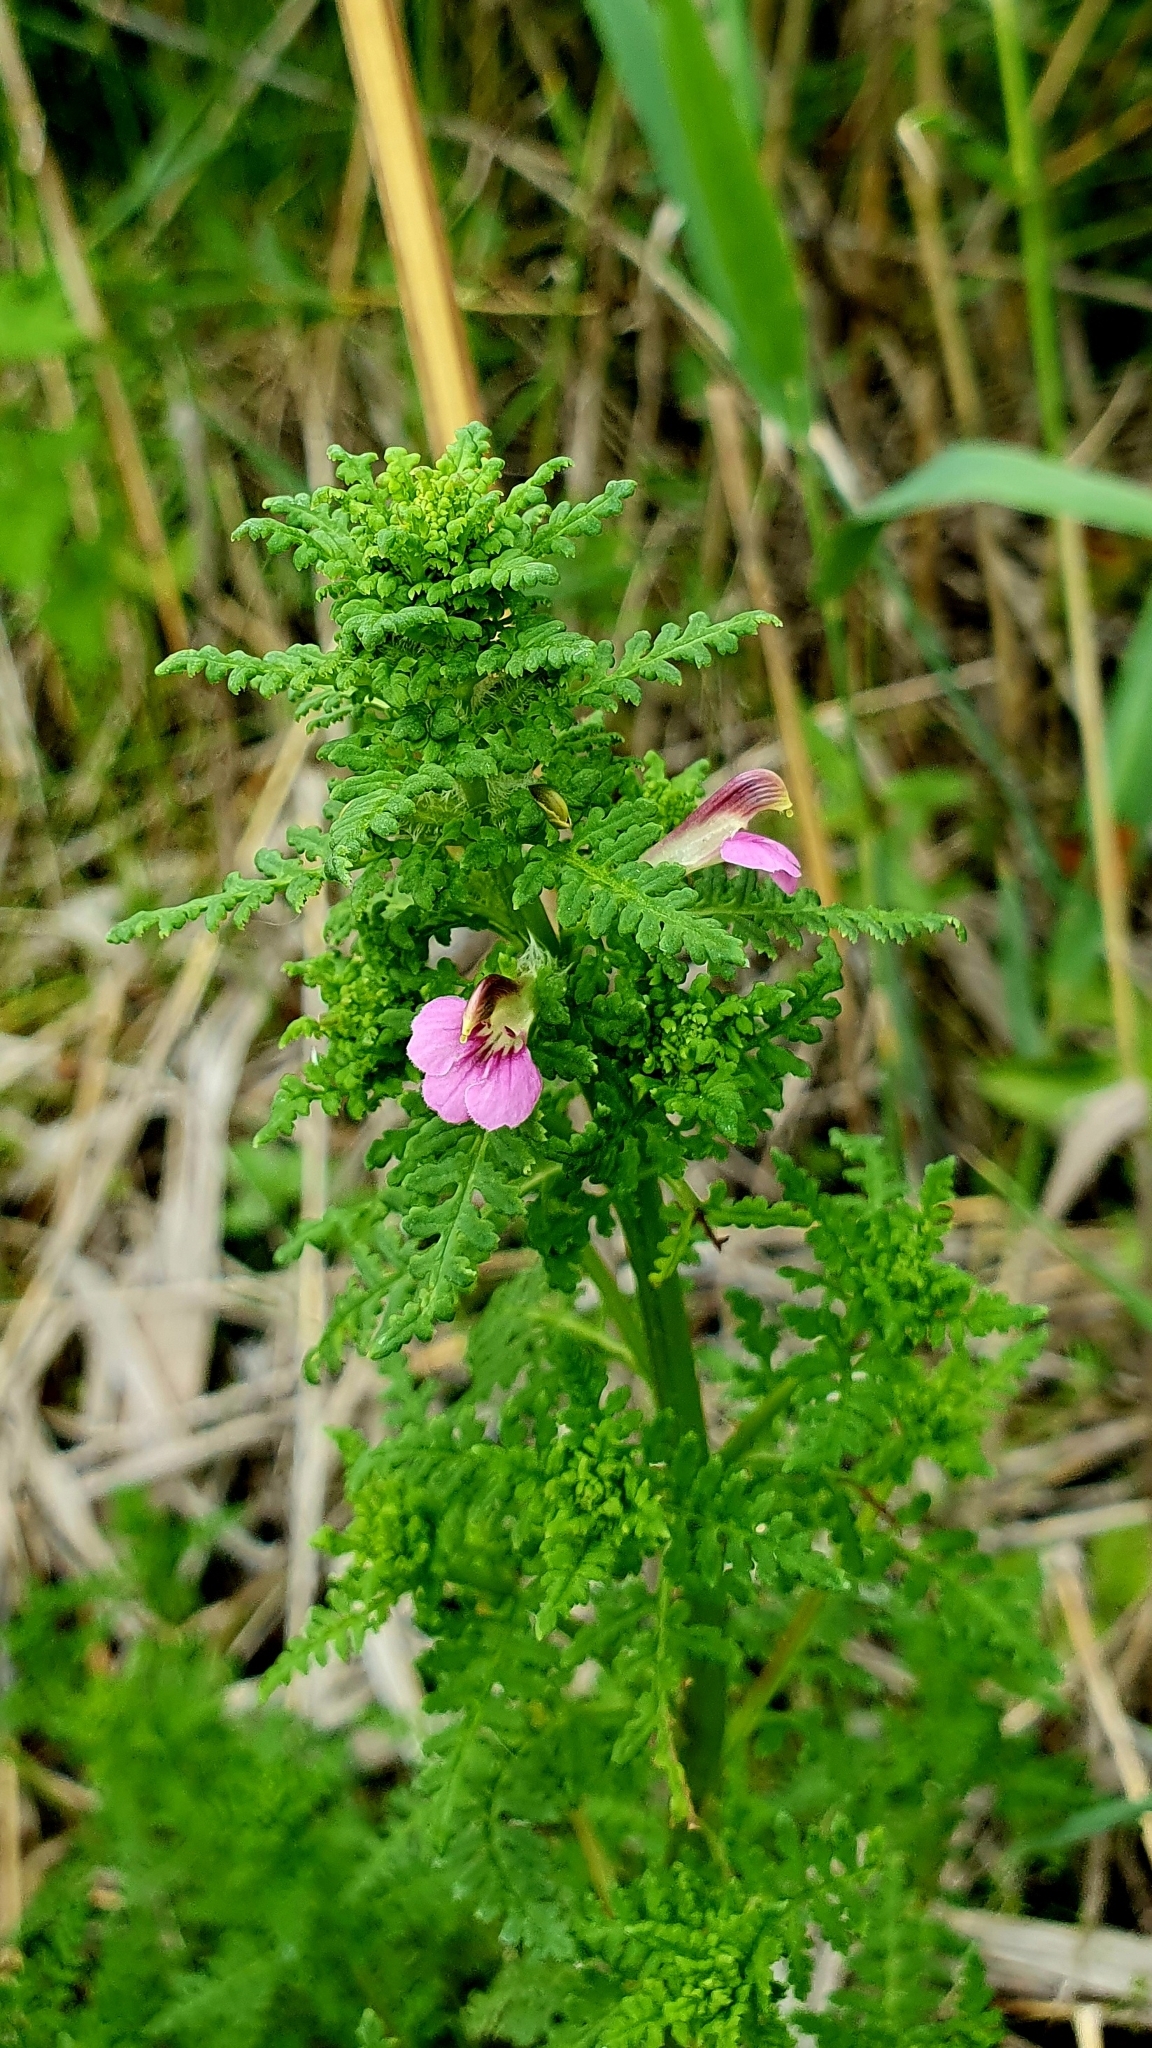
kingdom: Plantae
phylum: Tracheophyta
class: Magnoliopsida
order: Lamiales
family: Orobanchaceae
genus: Pedicularis
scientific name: Pedicularis palustris
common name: Marsh lousewort
